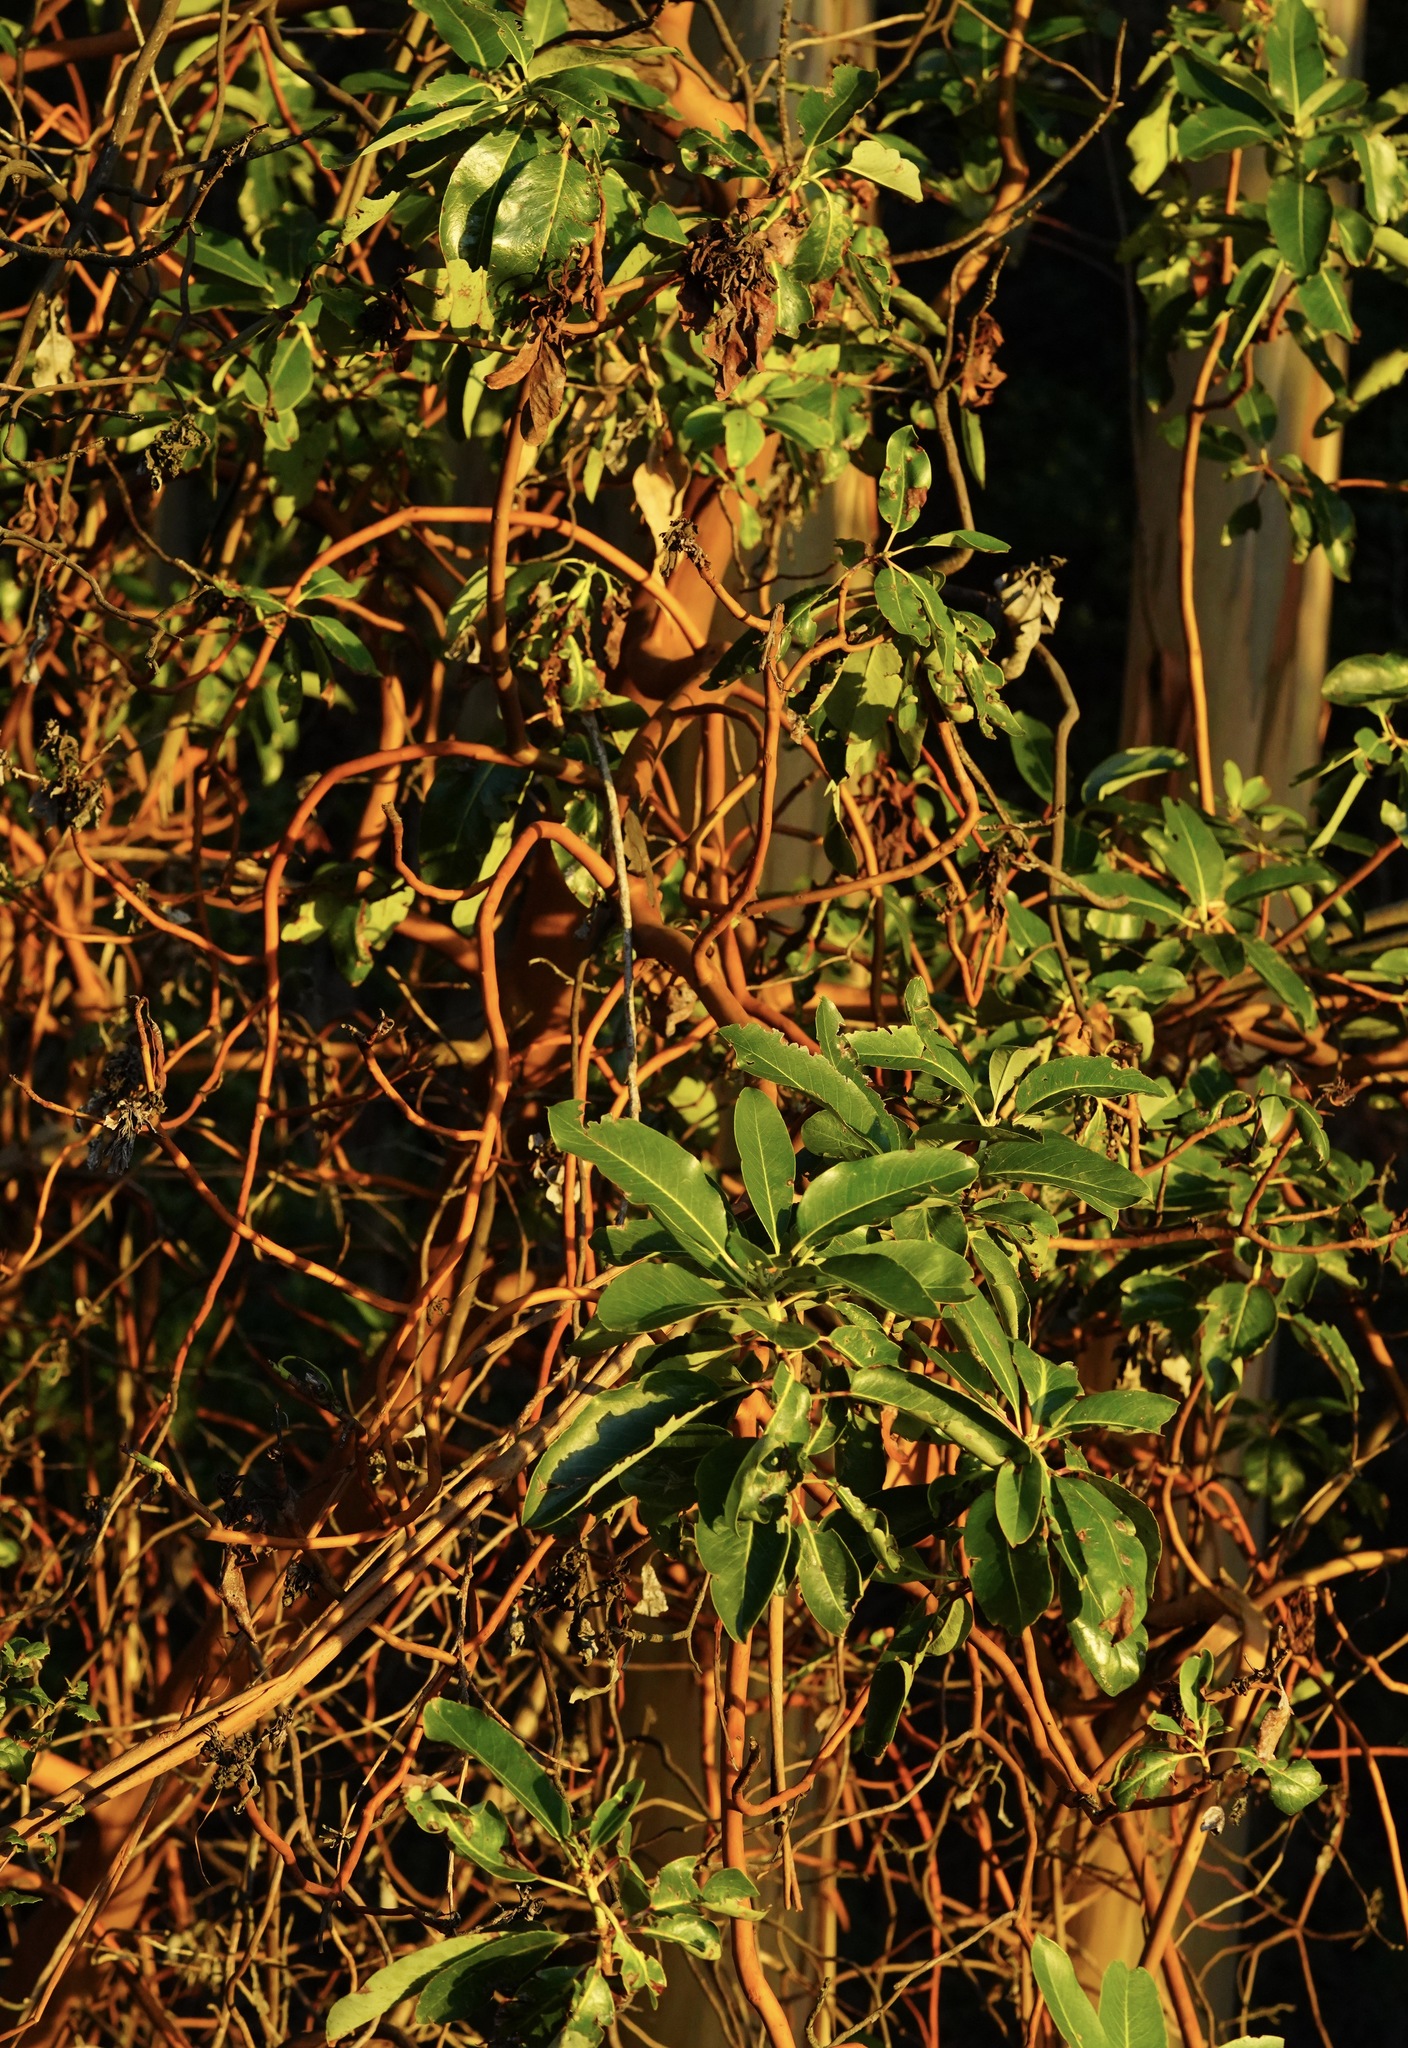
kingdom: Plantae
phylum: Tracheophyta
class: Magnoliopsida
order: Ericales
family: Ericaceae
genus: Arbutus
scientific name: Arbutus menziesii
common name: Pacific madrone
